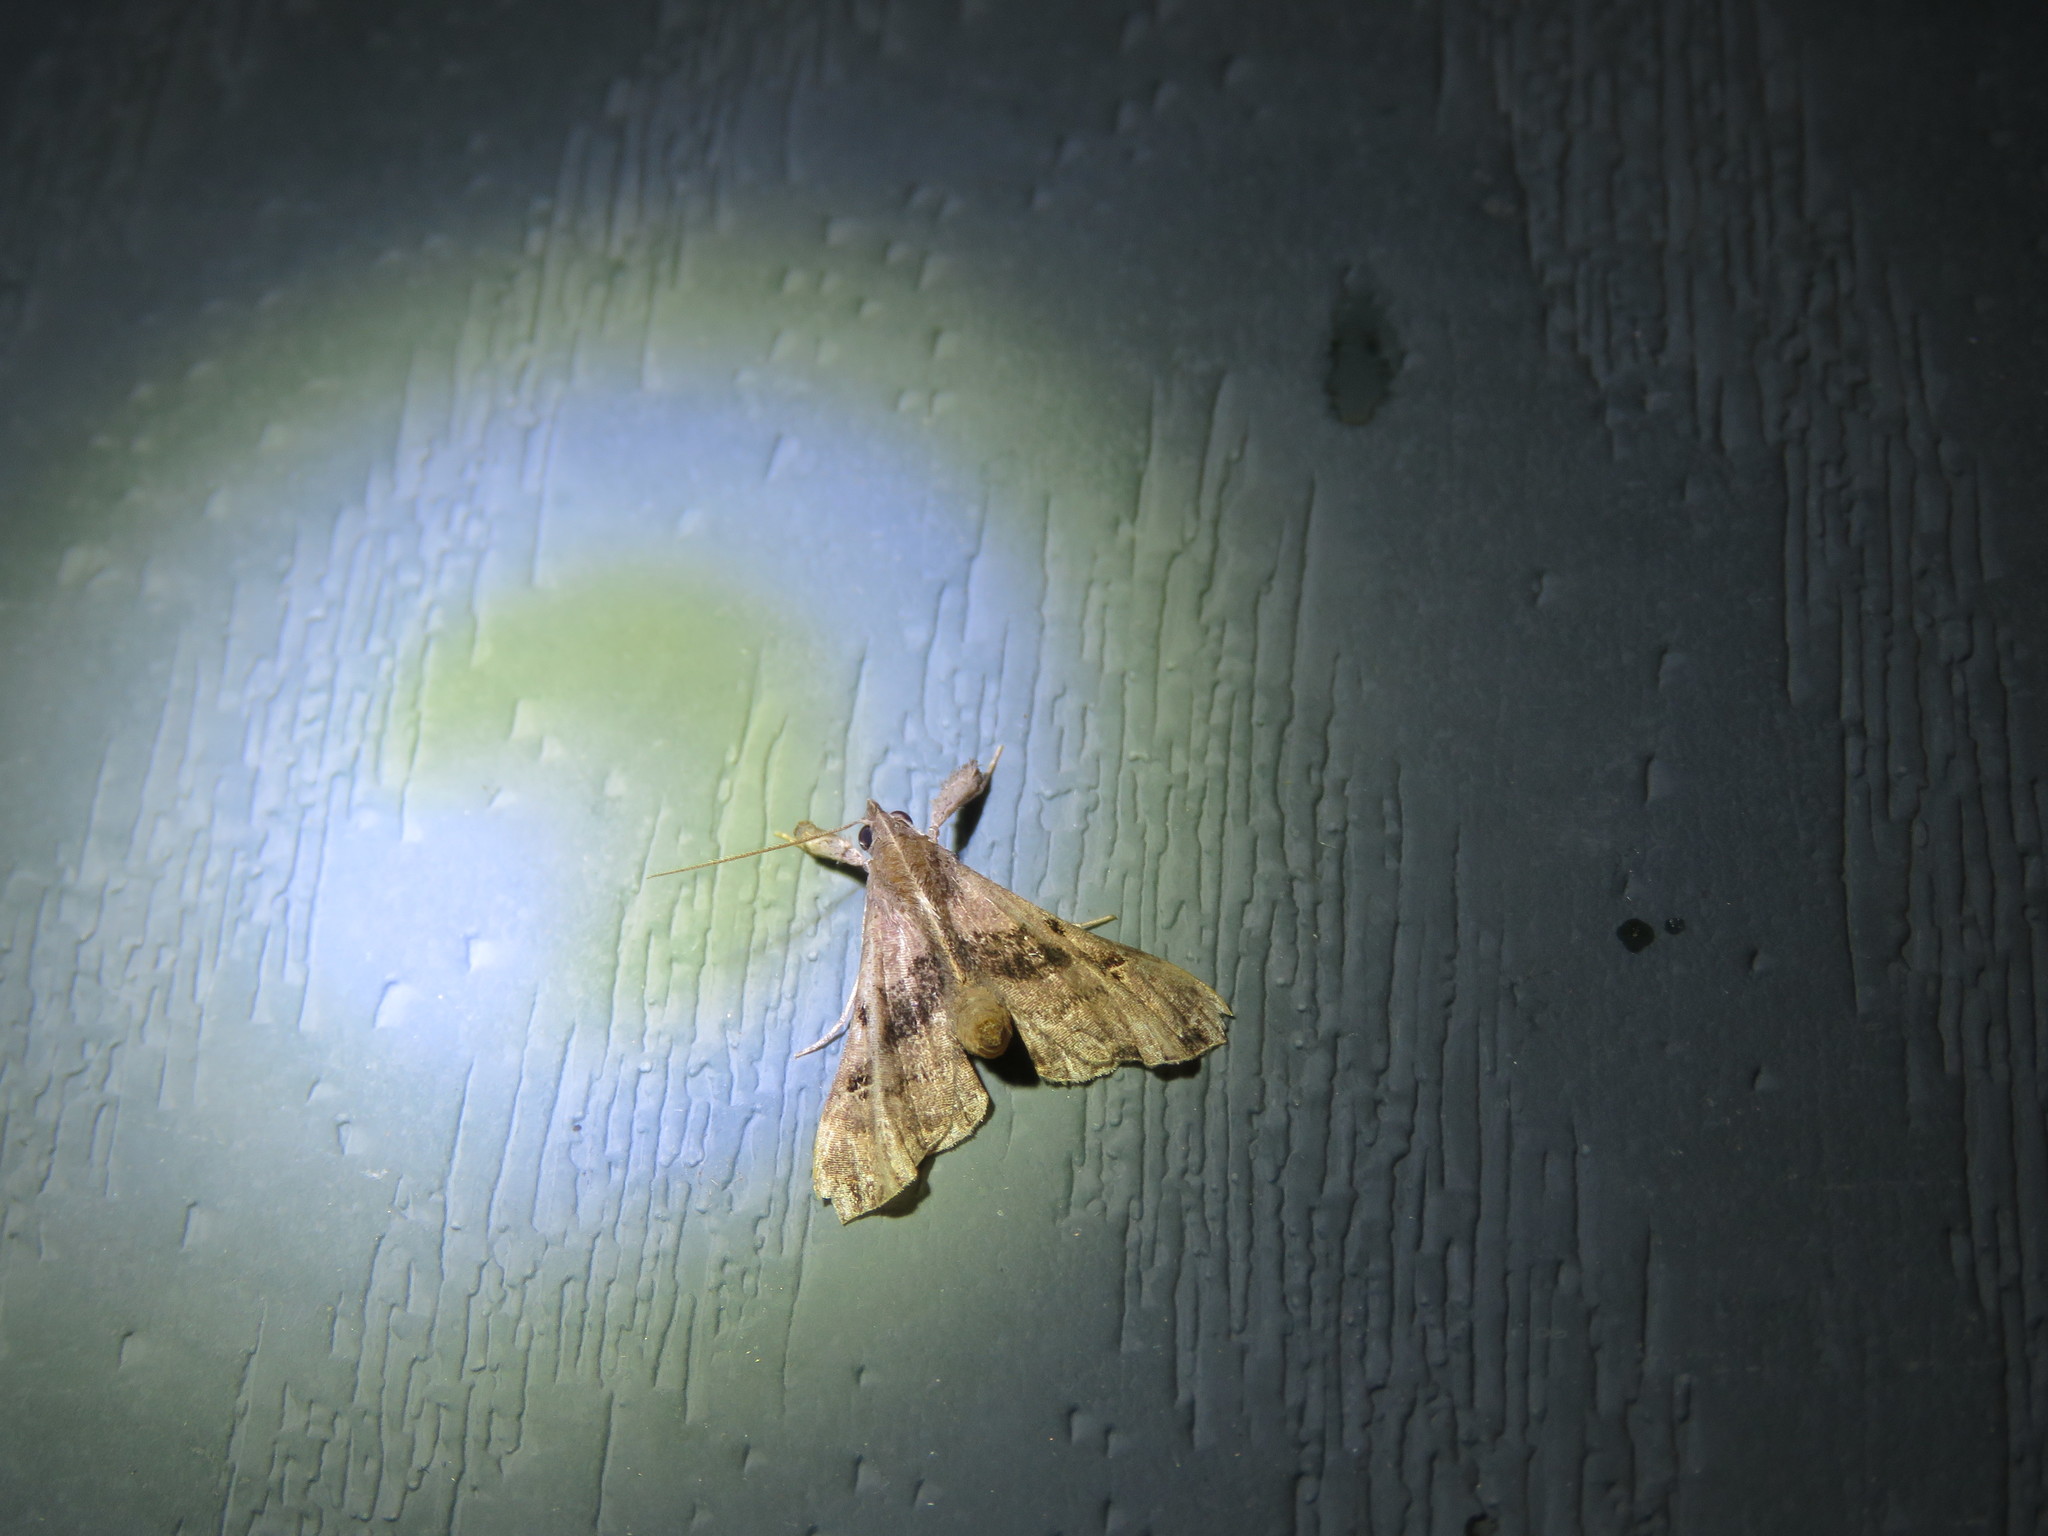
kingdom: Animalia
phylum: Arthropoda
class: Insecta
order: Lepidoptera
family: Erebidae
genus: Palthis
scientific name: Palthis asopialis
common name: Faint-spotted palthis moth
